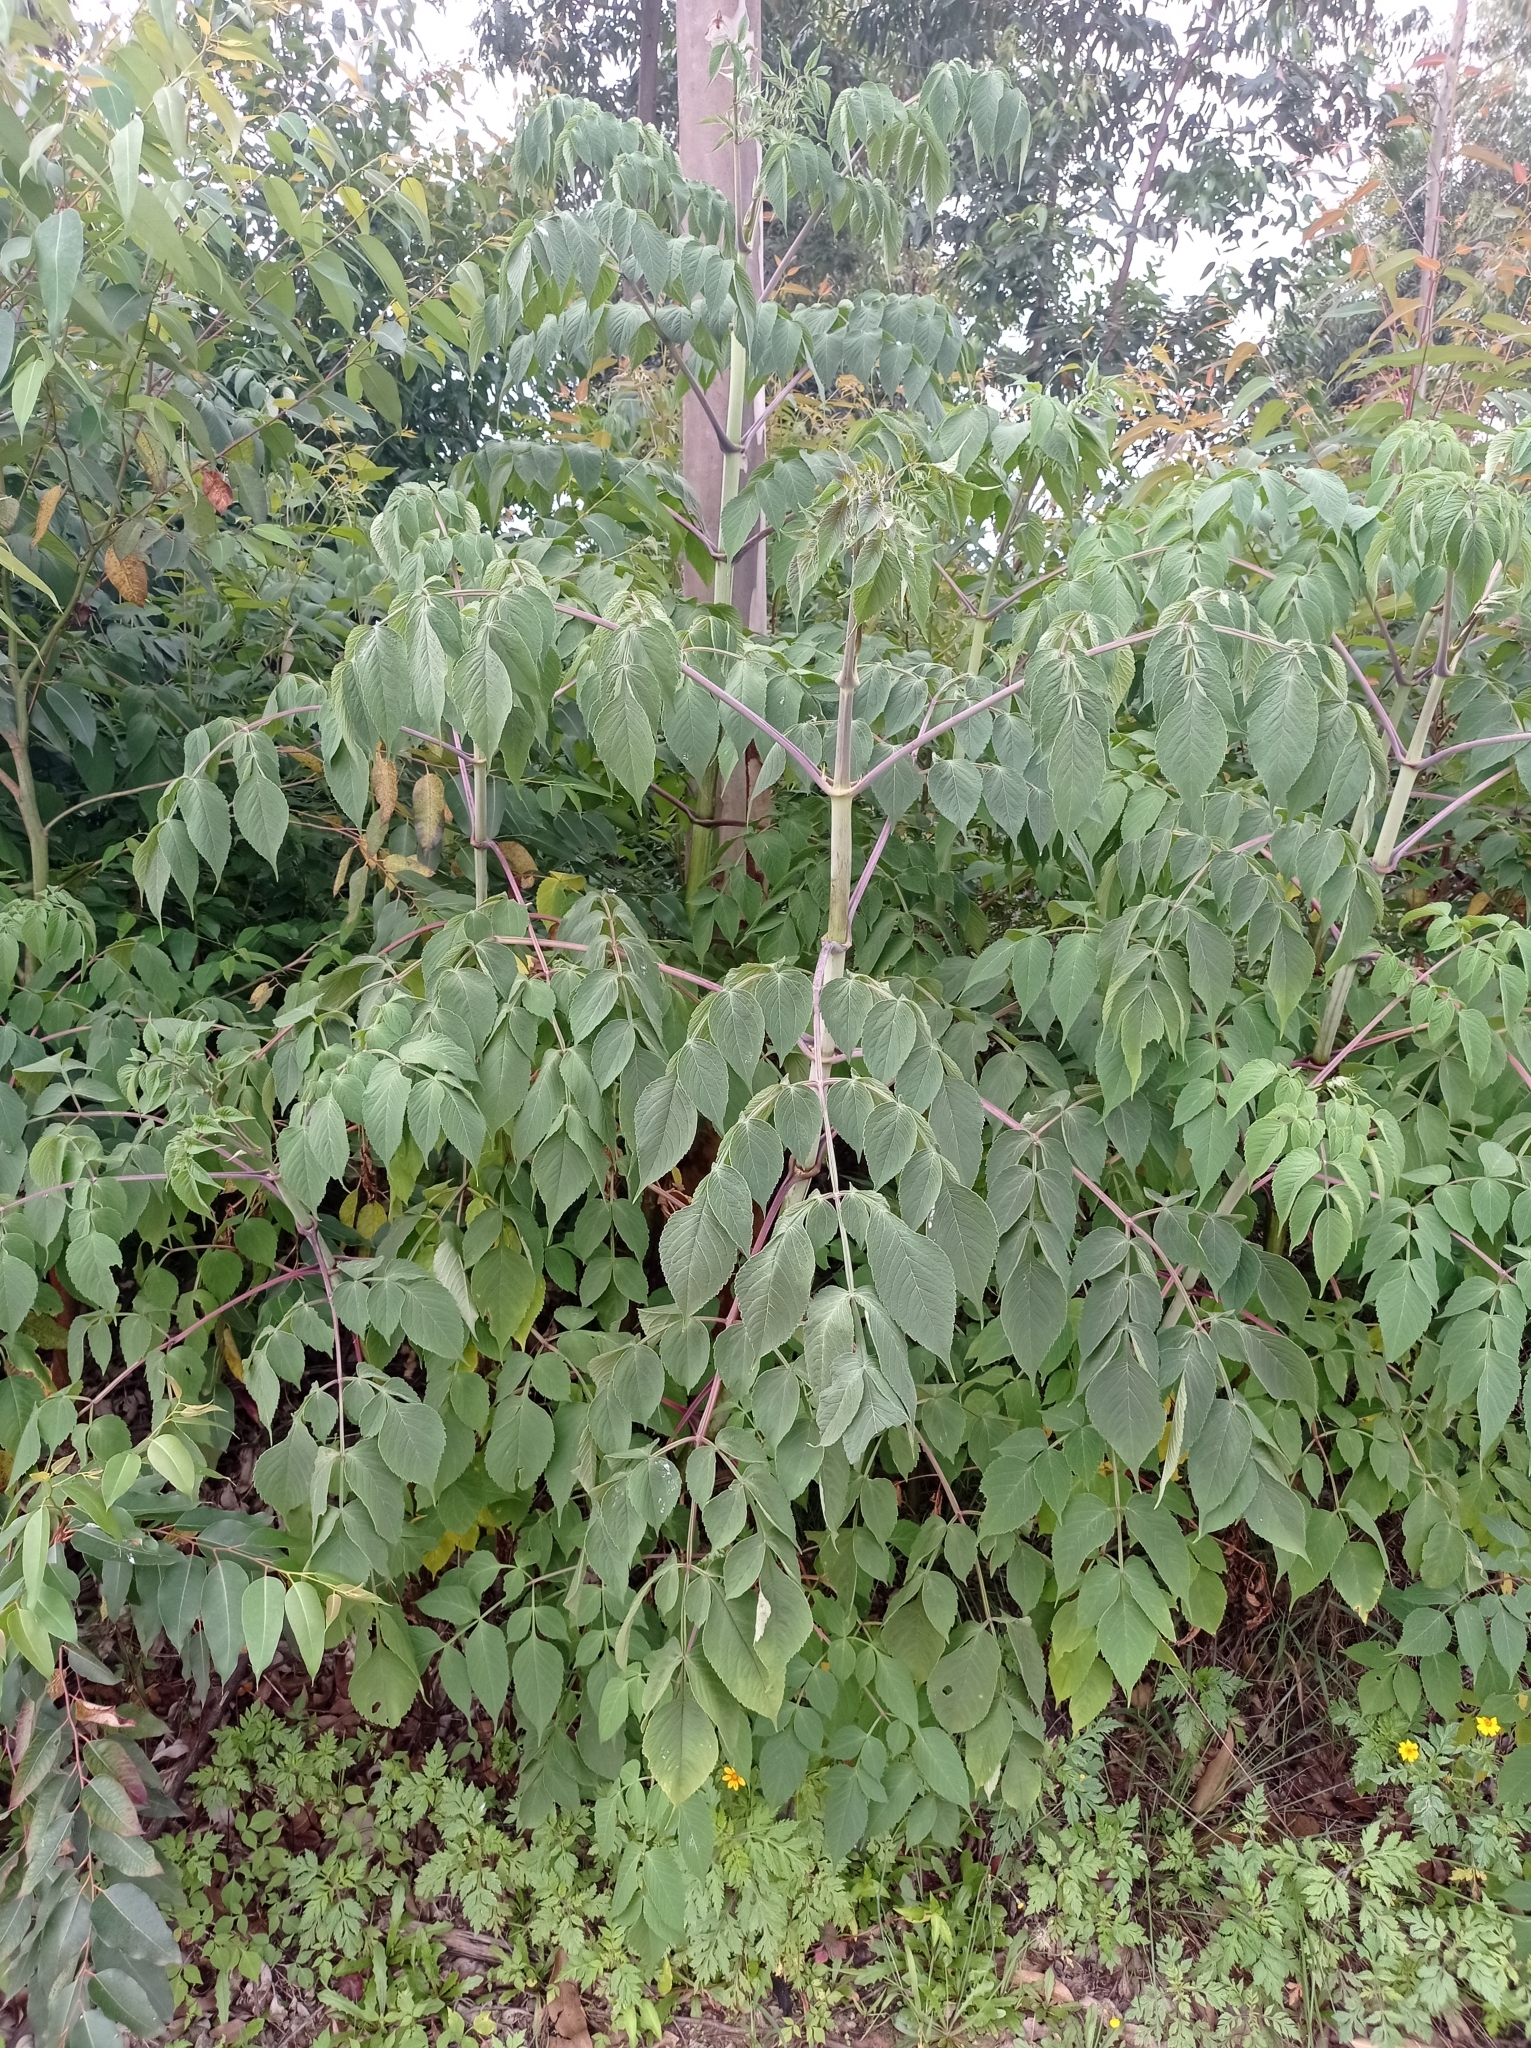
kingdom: Plantae
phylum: Tracheophyta
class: Magnoliopsida
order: Asterales
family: Asteraceae
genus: Dahlia
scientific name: Dahlia imperialis
